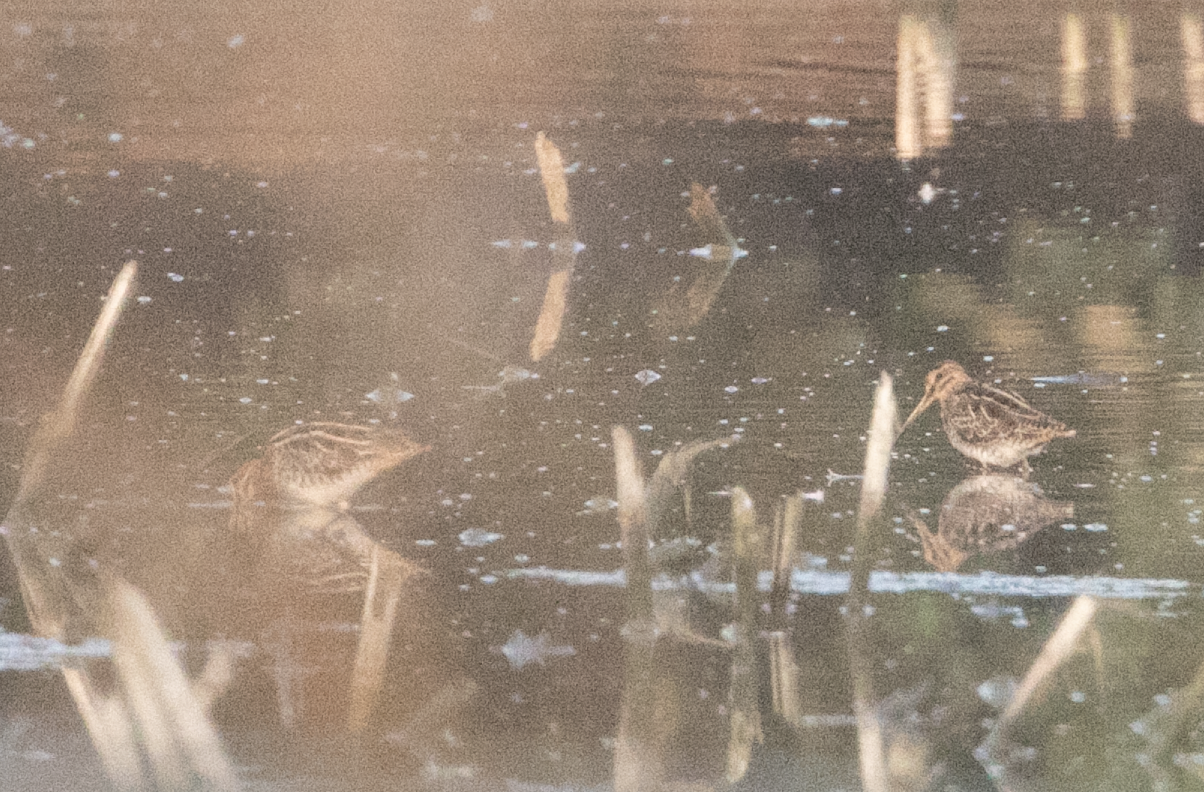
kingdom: Animalia
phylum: Chordata
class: Aves
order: Charadriiformes
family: Scolopacidae
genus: Gallinago
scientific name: Gallinago gallinago
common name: Common snipe
